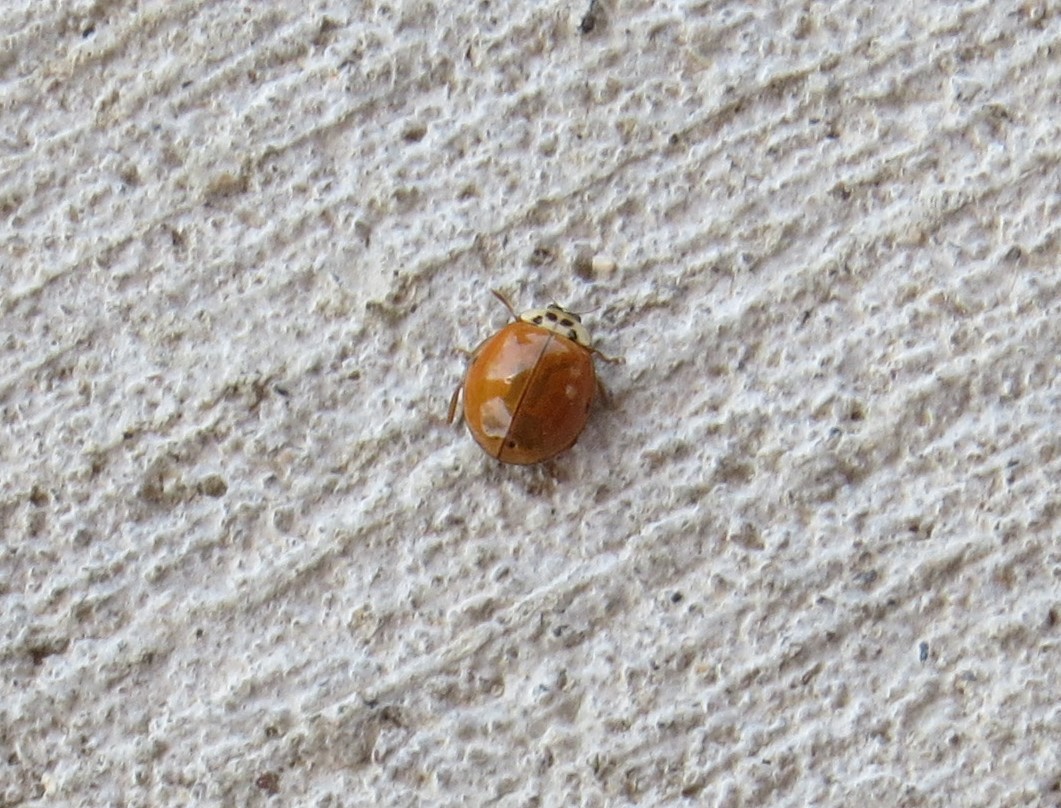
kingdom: Animalia
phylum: Arthropoda
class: Insecta
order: Coleoptera
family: Coccinellidae
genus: Harmonia
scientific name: Harmonia axyridis
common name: Harlequin ladybird
